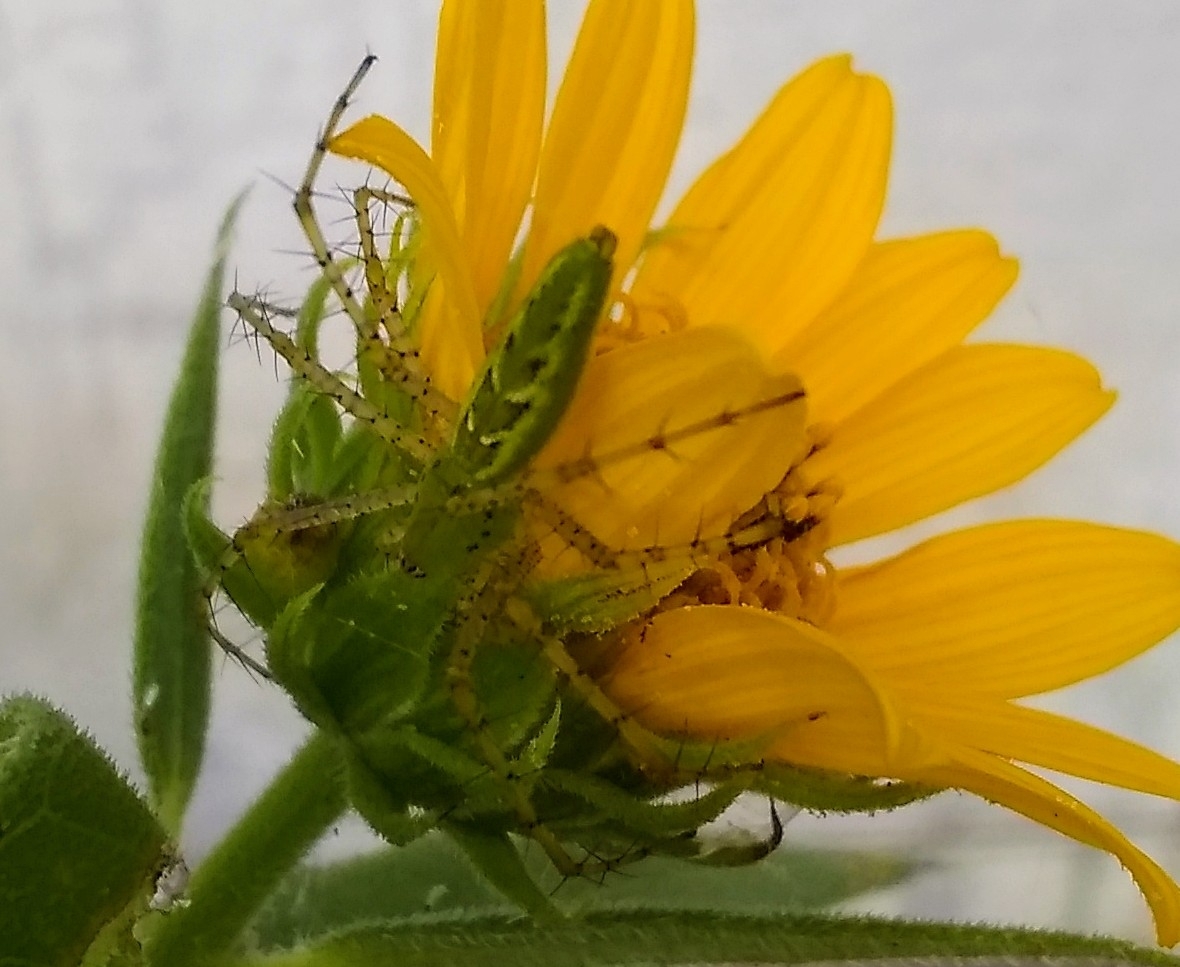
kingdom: Animalia
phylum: Arthropoda
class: Arachnida
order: Araneae
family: Oxyopidae
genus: Peucetia
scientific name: Peucetia viridans
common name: Lynx spiders
